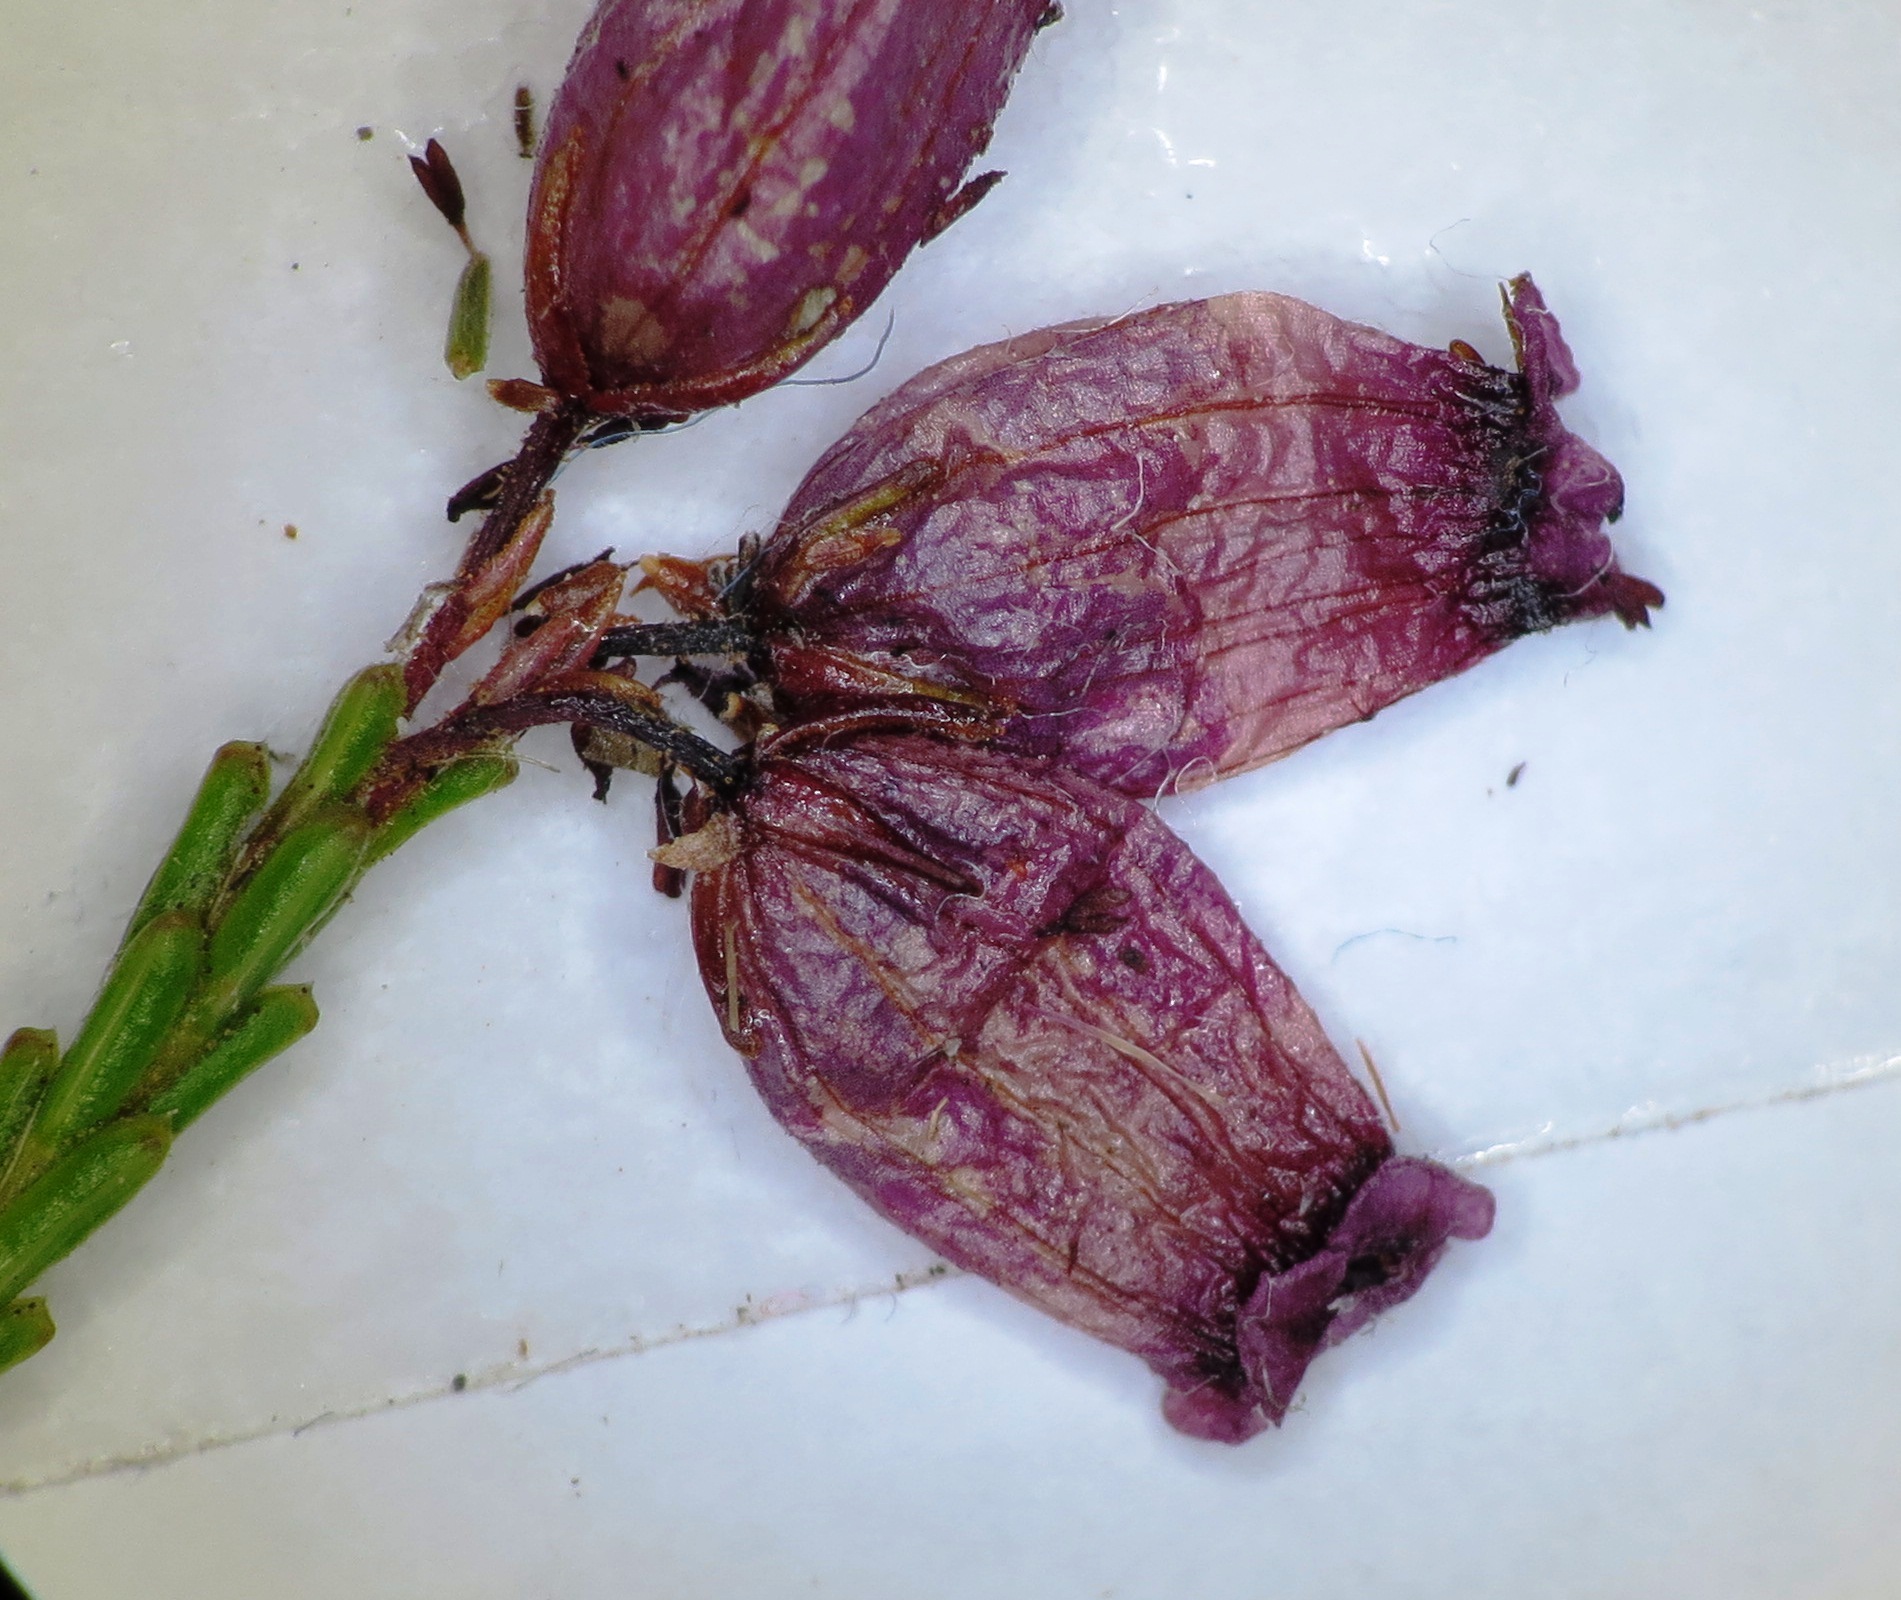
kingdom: Plantae
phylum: Tracheophyta
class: Magnoliopsida
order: Ericales
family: Ericaceae
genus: Erica
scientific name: Erica trichroma
